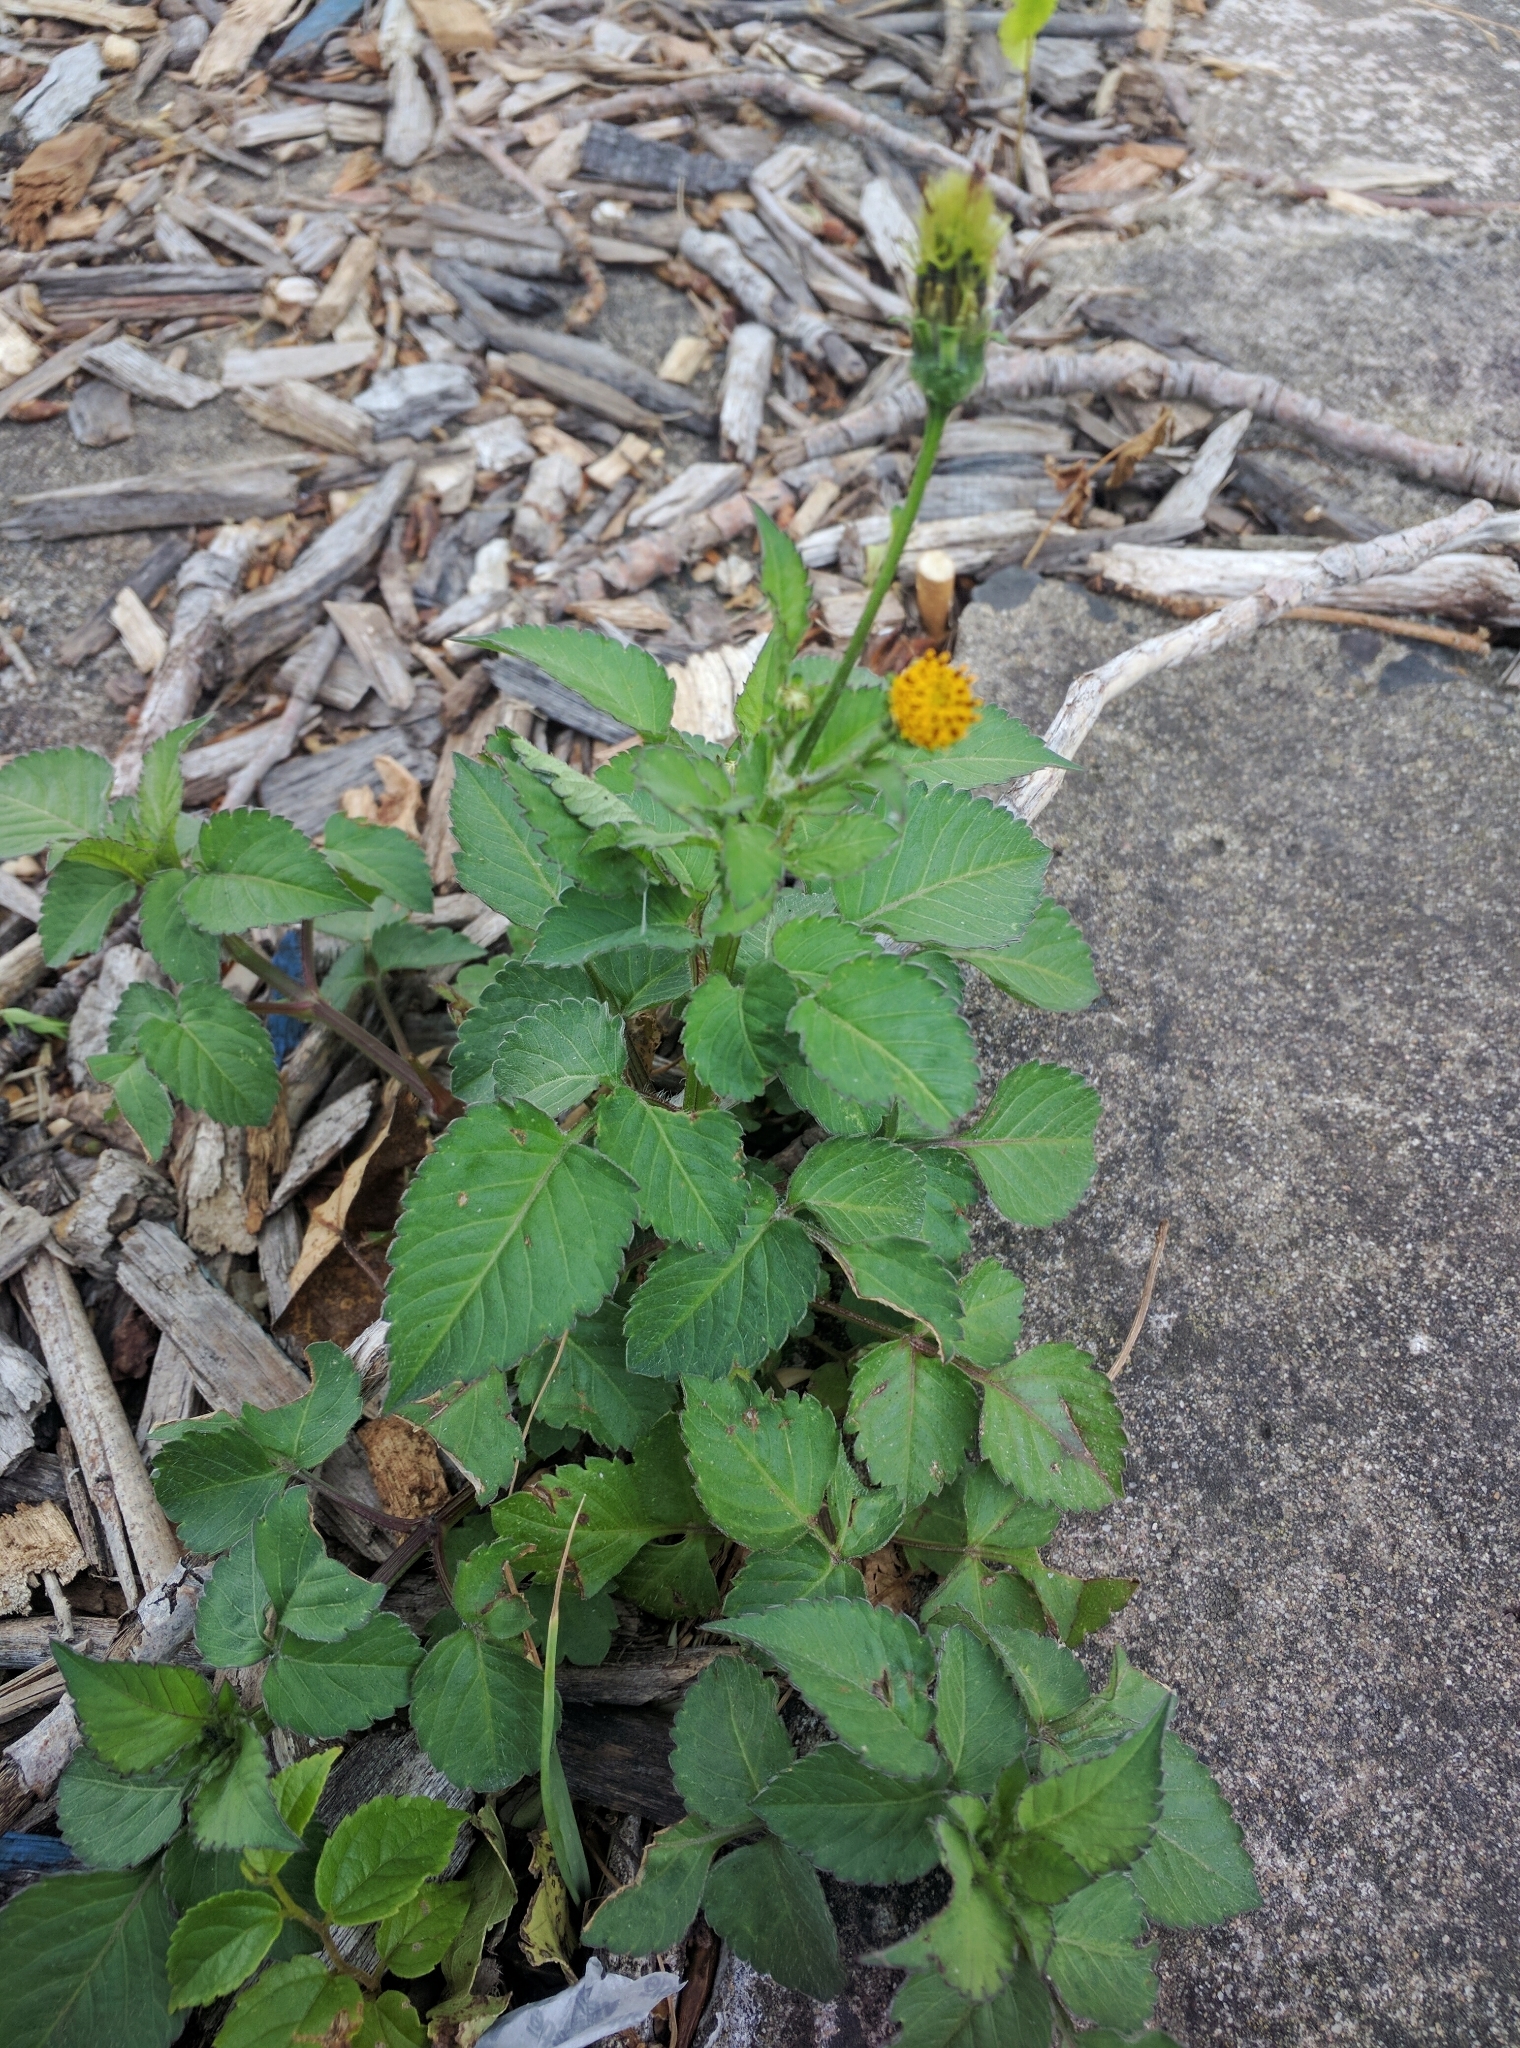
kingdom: Plantae
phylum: Tracheophyta
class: Magnoliopsida
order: Asterales
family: Asteraceae
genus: Bidens
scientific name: Bidens pilosa
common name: Black-jack
